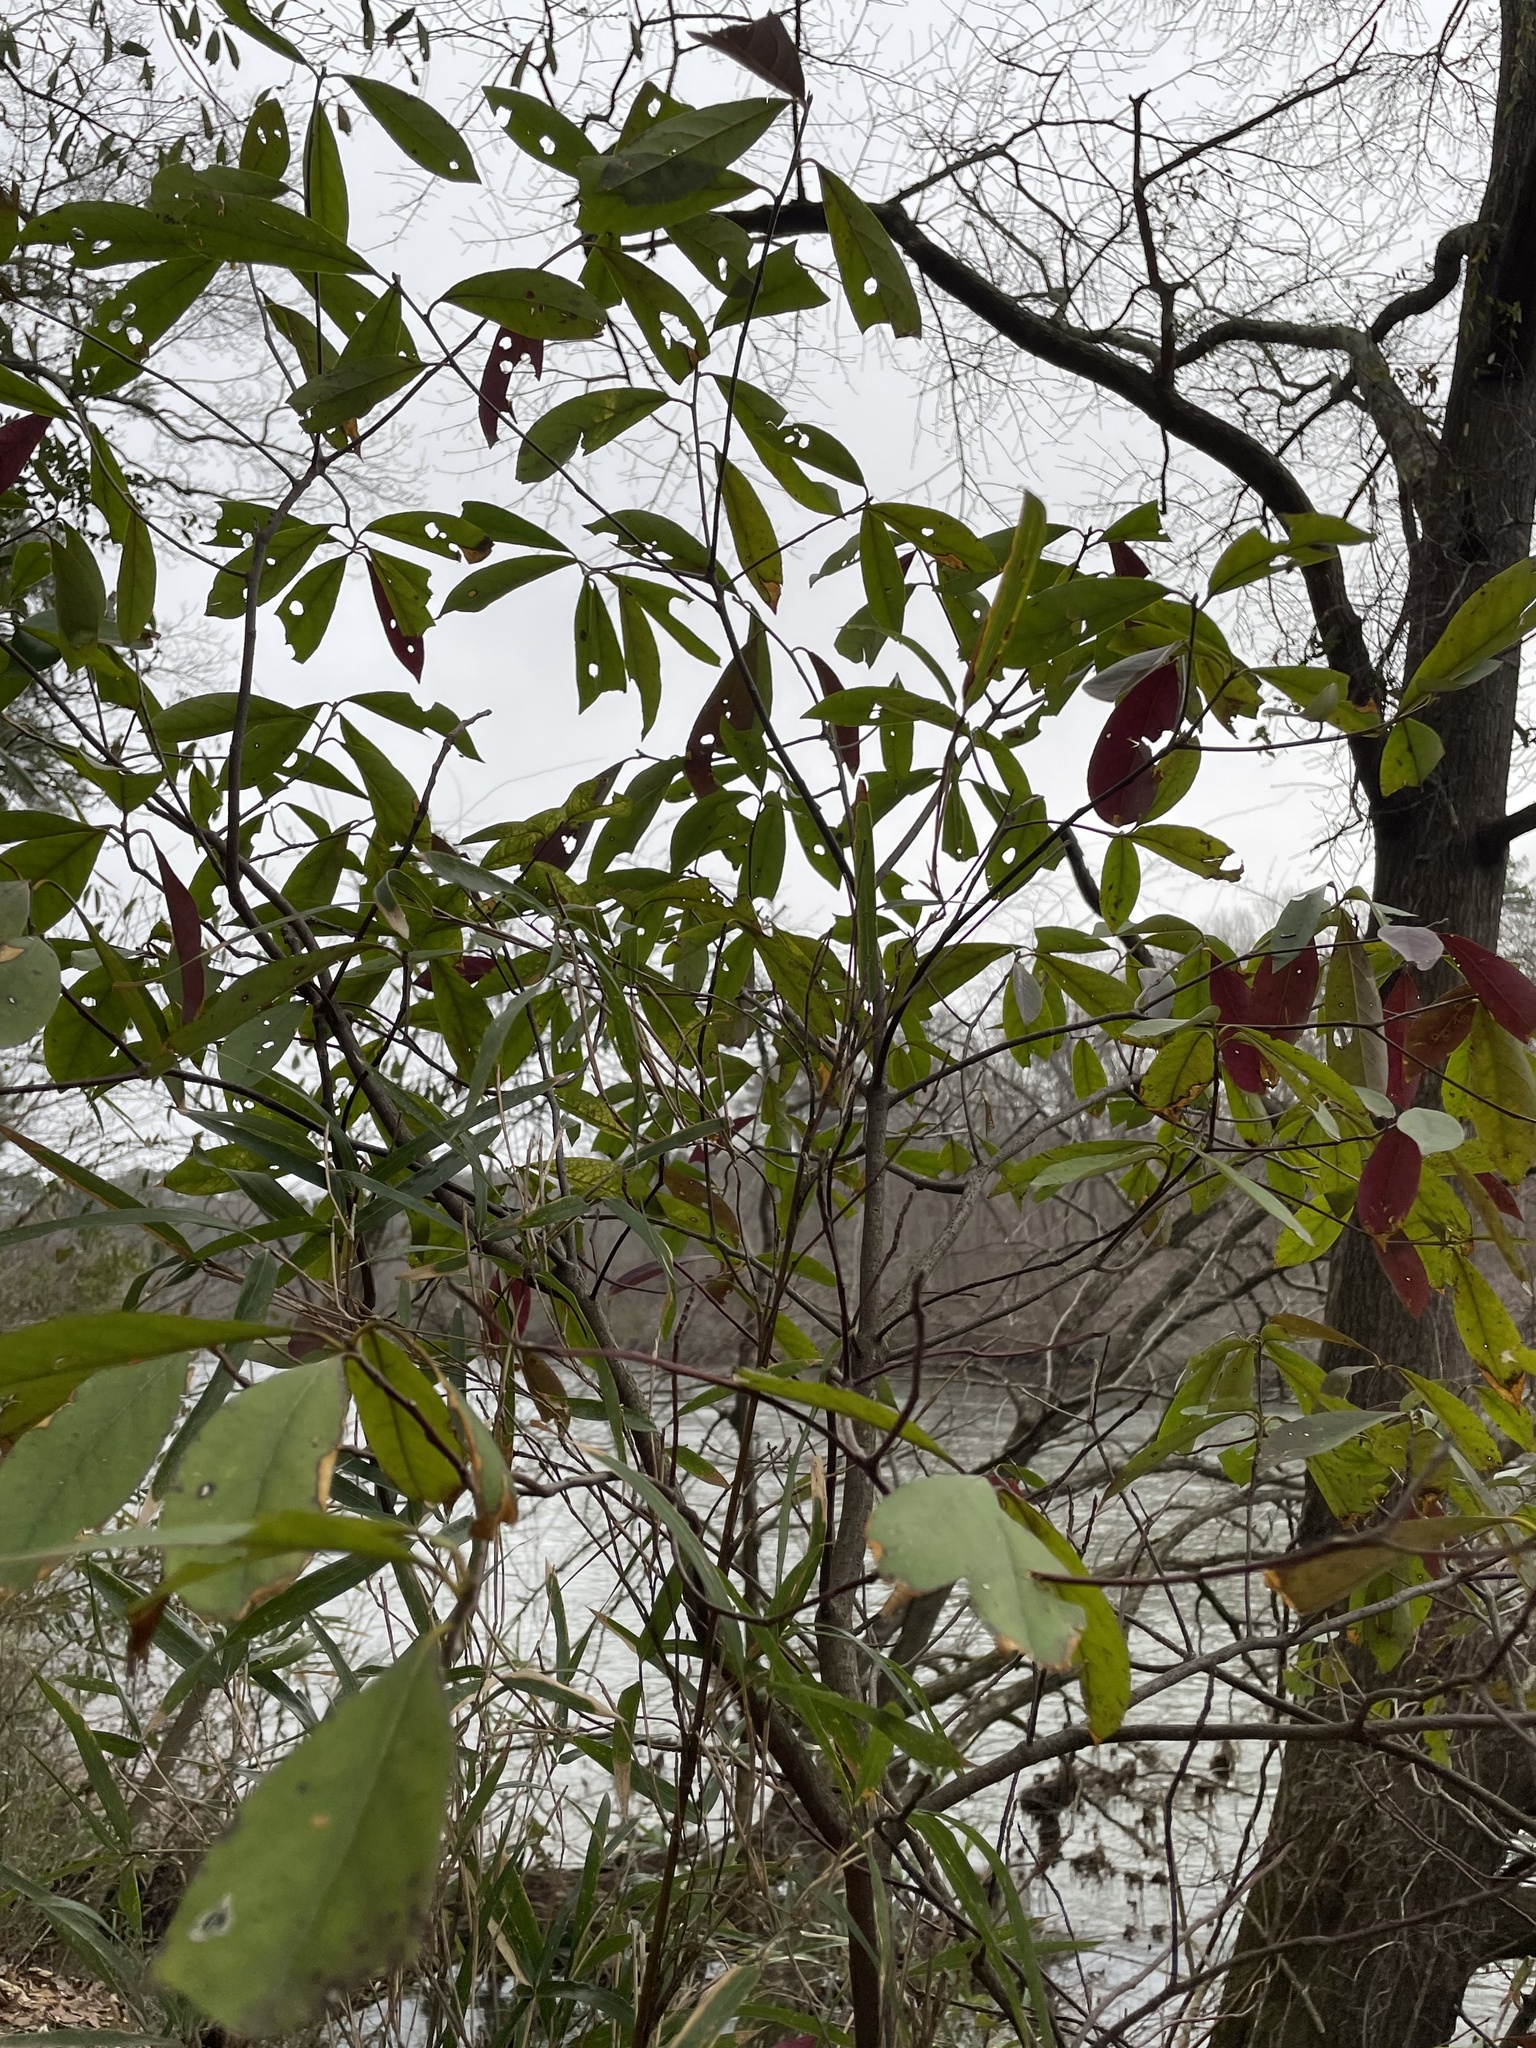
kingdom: Plantae
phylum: Tracheophyta
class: Magnoliopsida
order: Ericales
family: Symplocaceae
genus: Symplocos
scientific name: Symplocos tinctoria
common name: Horse-sugar
